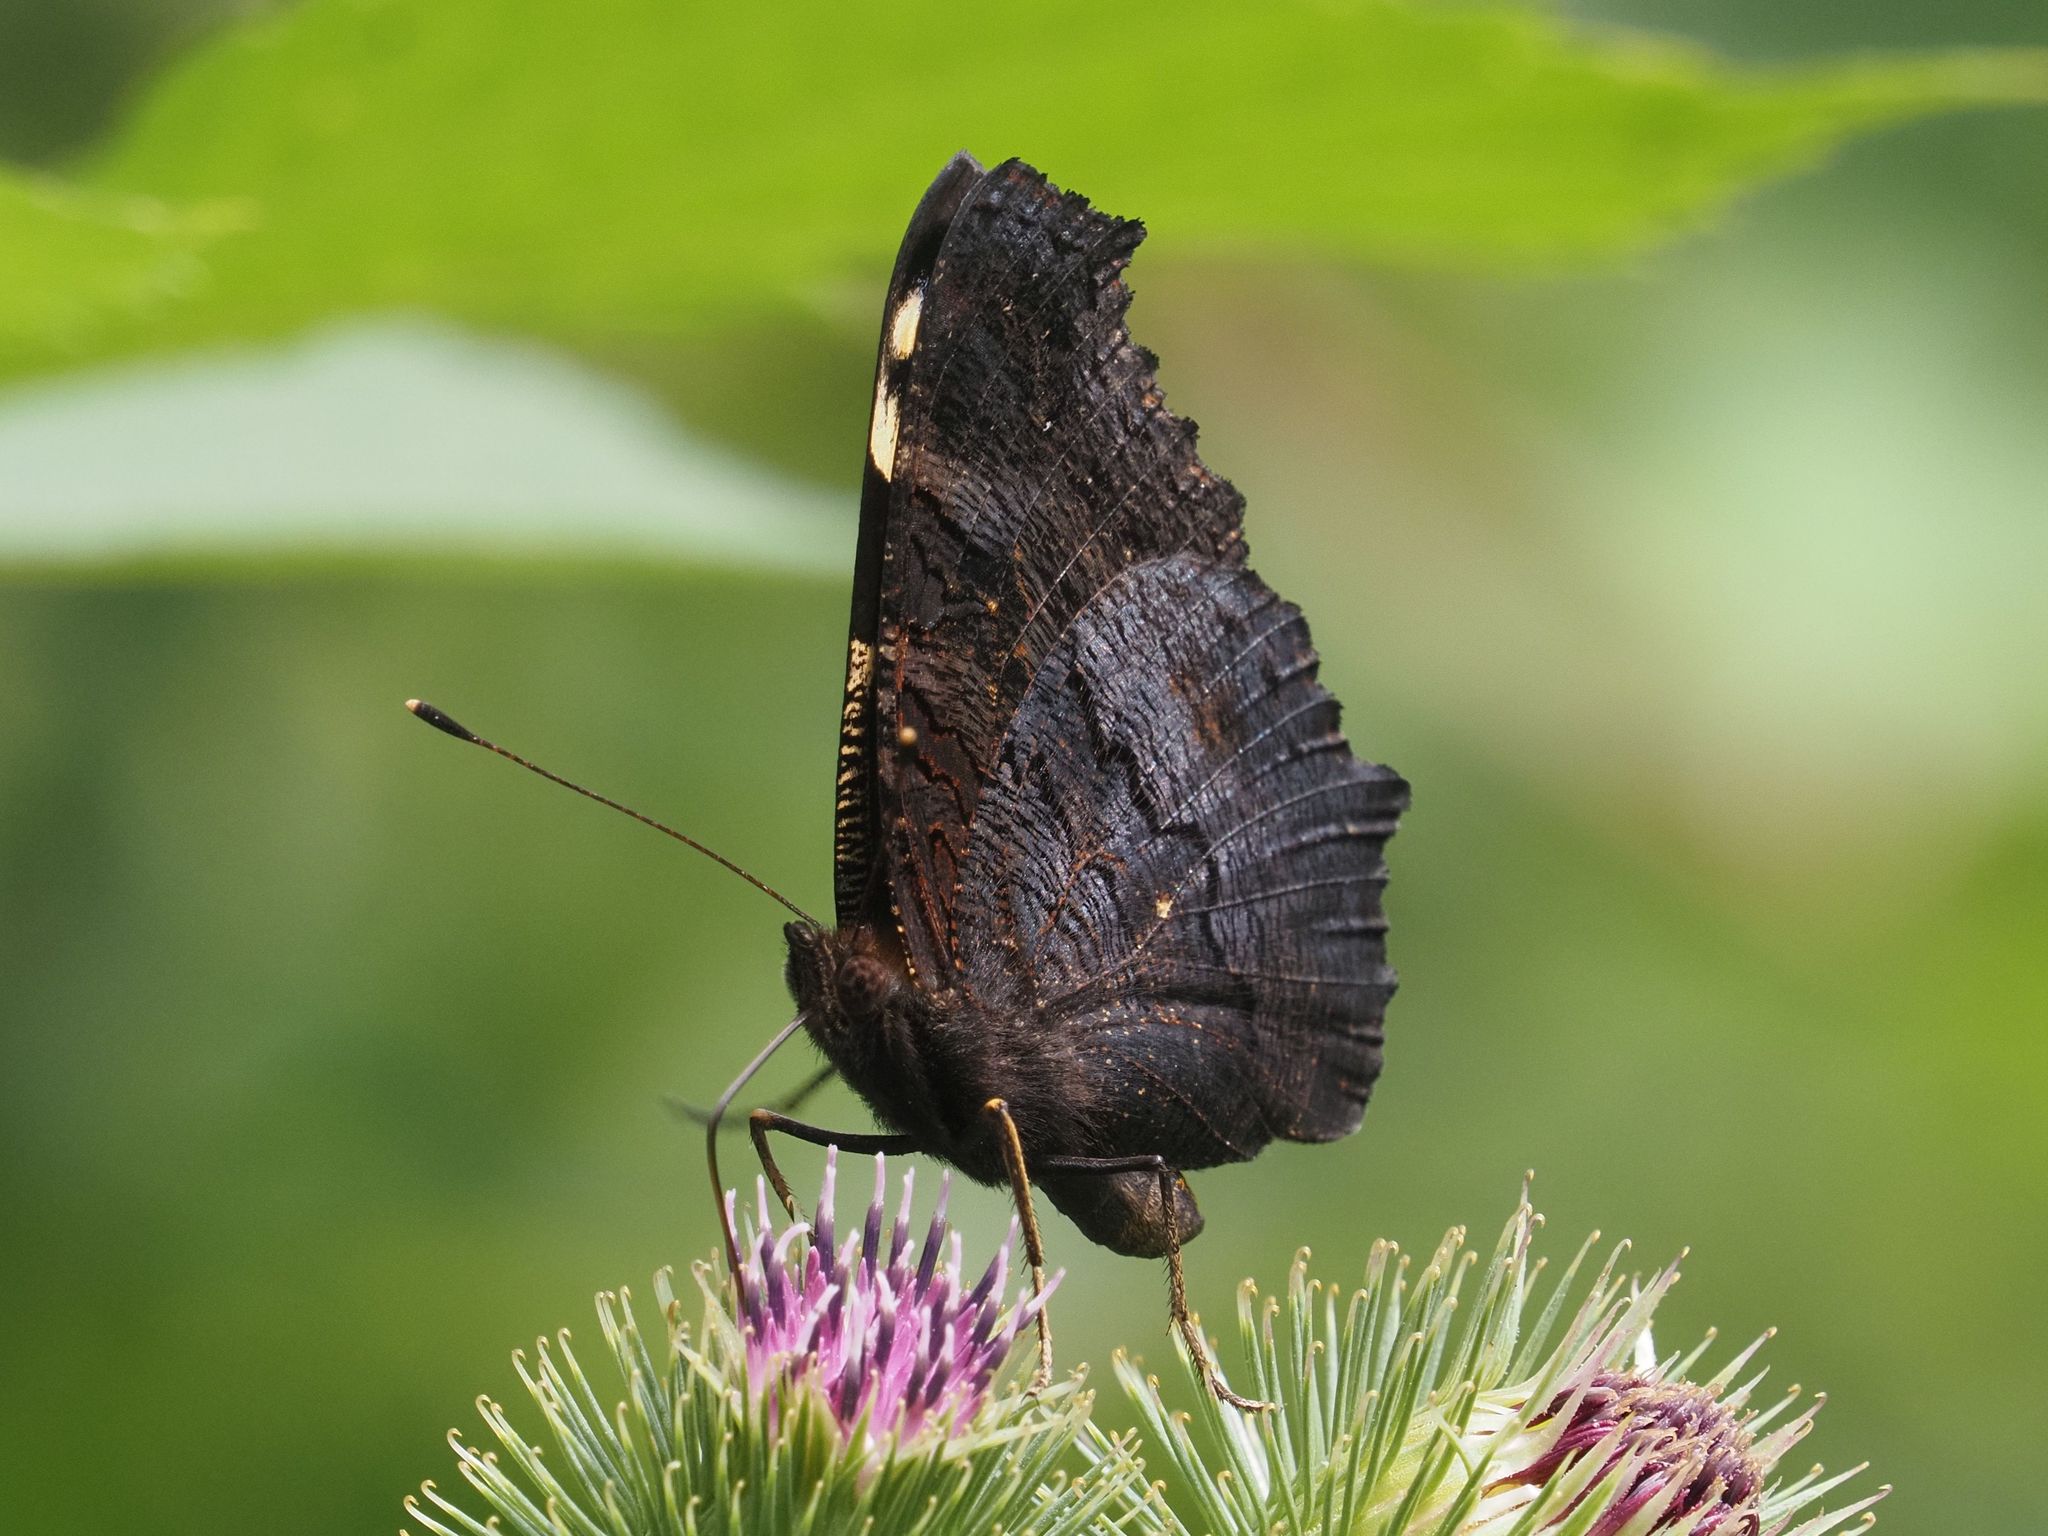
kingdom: Animalia
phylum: Arthropoda
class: Insecta
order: Lepidoptera
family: Nymphalidae
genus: Aglais
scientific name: Aglais io
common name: Peacock
